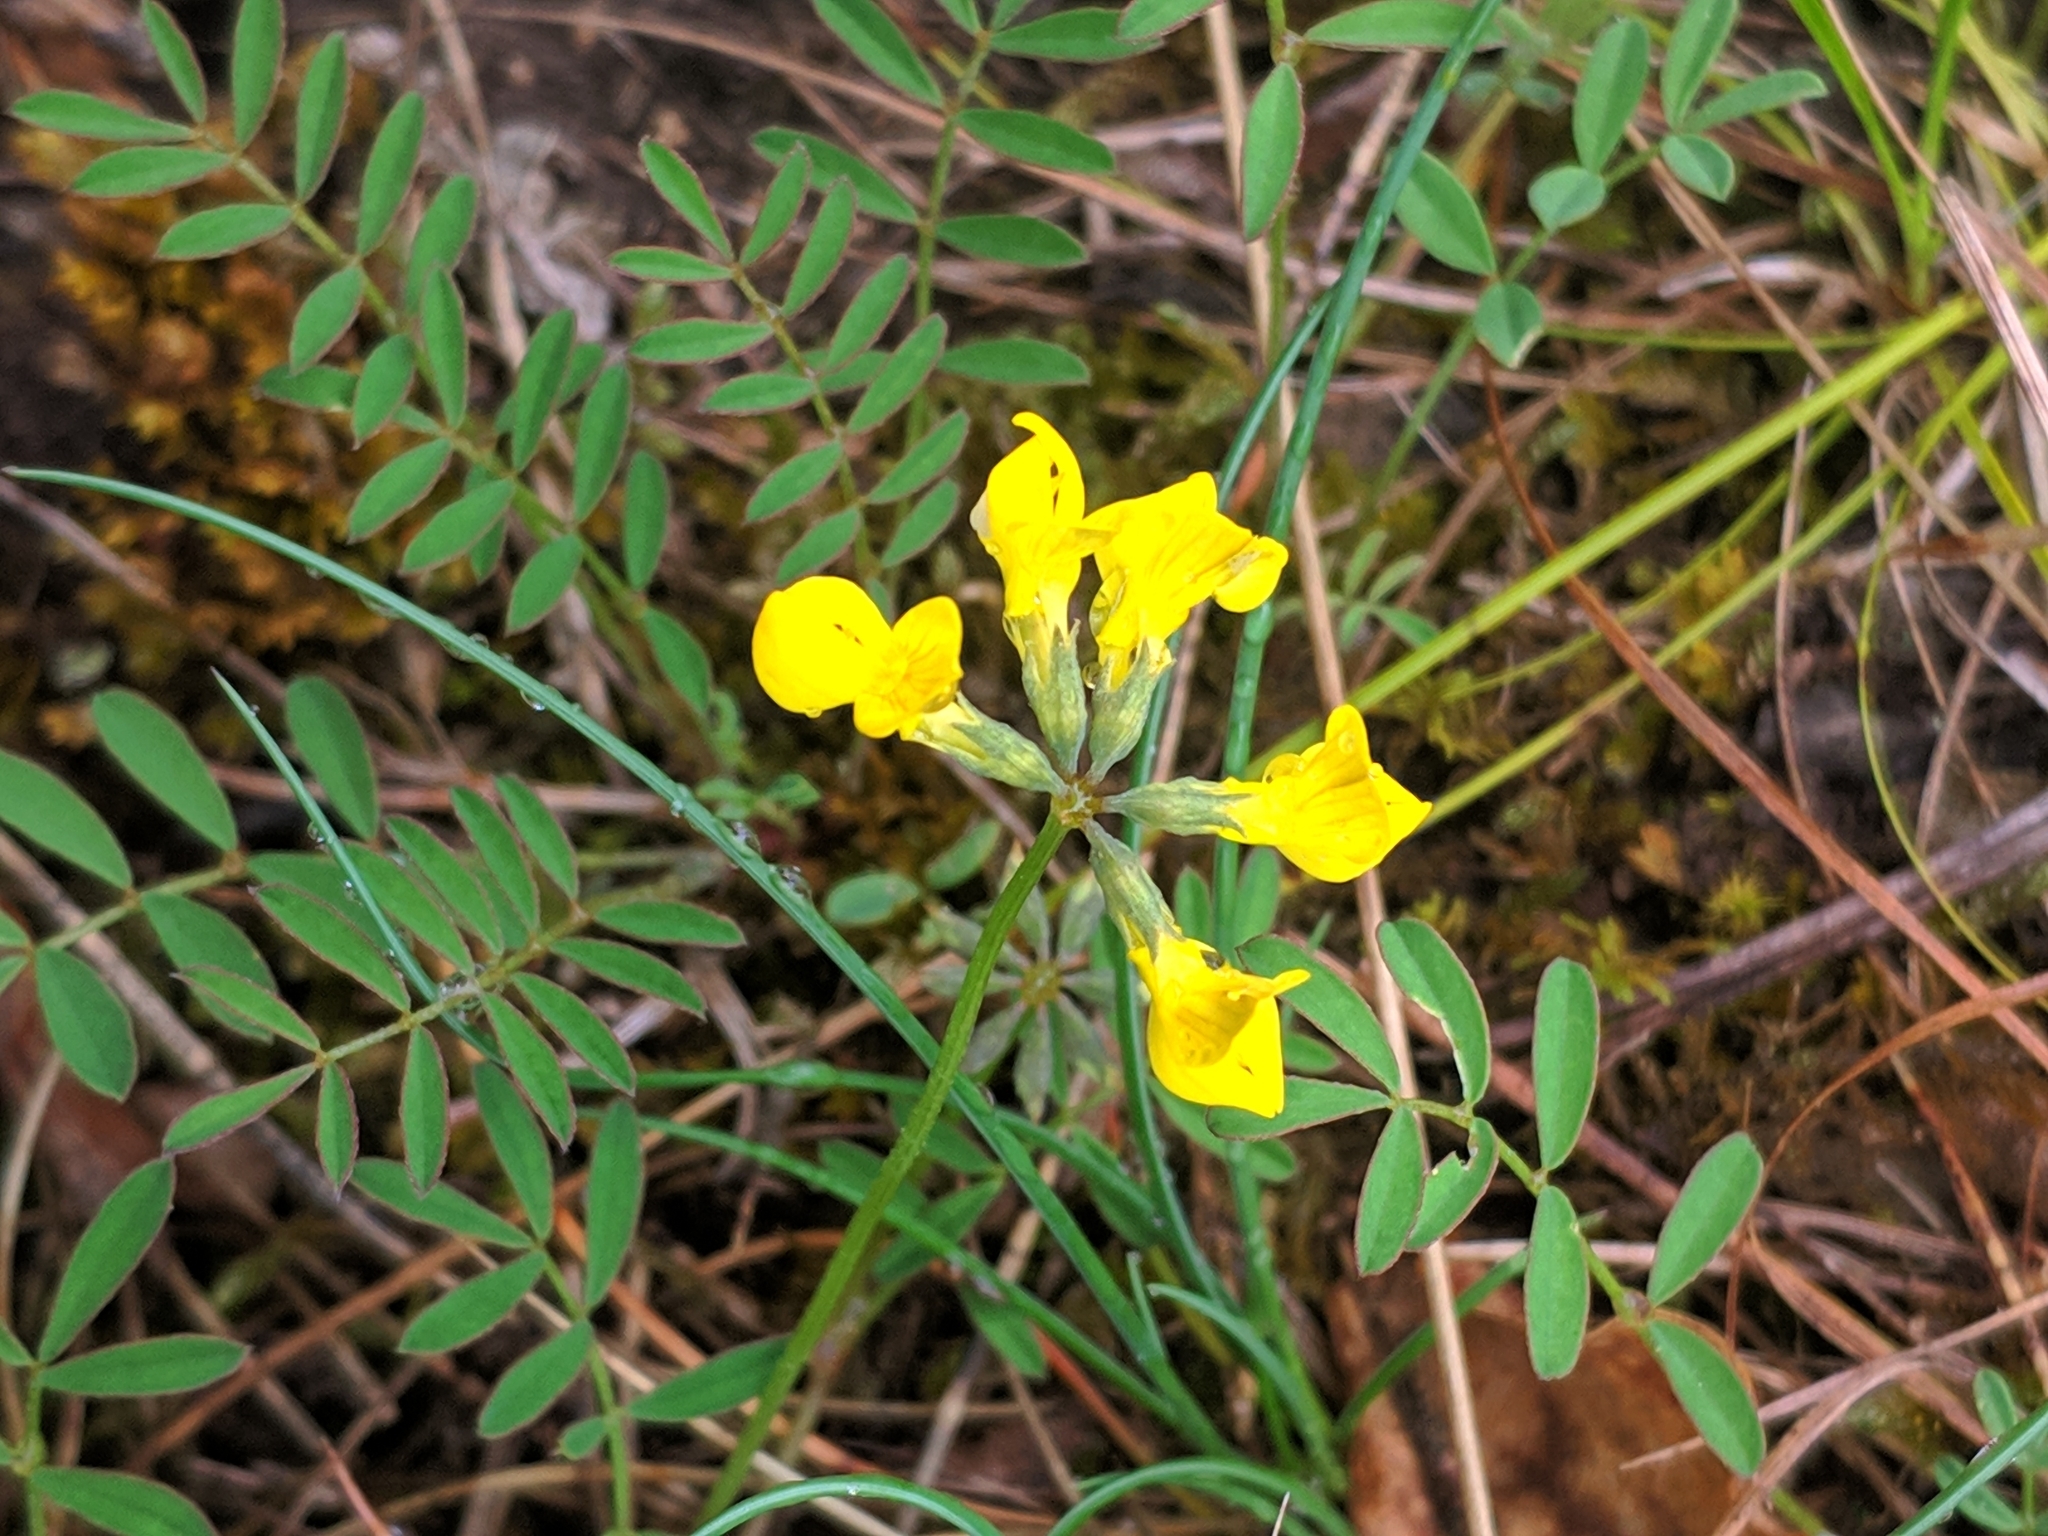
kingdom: Plantae
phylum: Tracheophyta
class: Magnoliopsida
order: Fabales
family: Fabaceae
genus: Hippocrepis
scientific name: Hippocrepis comosa
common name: Horseshoe vetch
